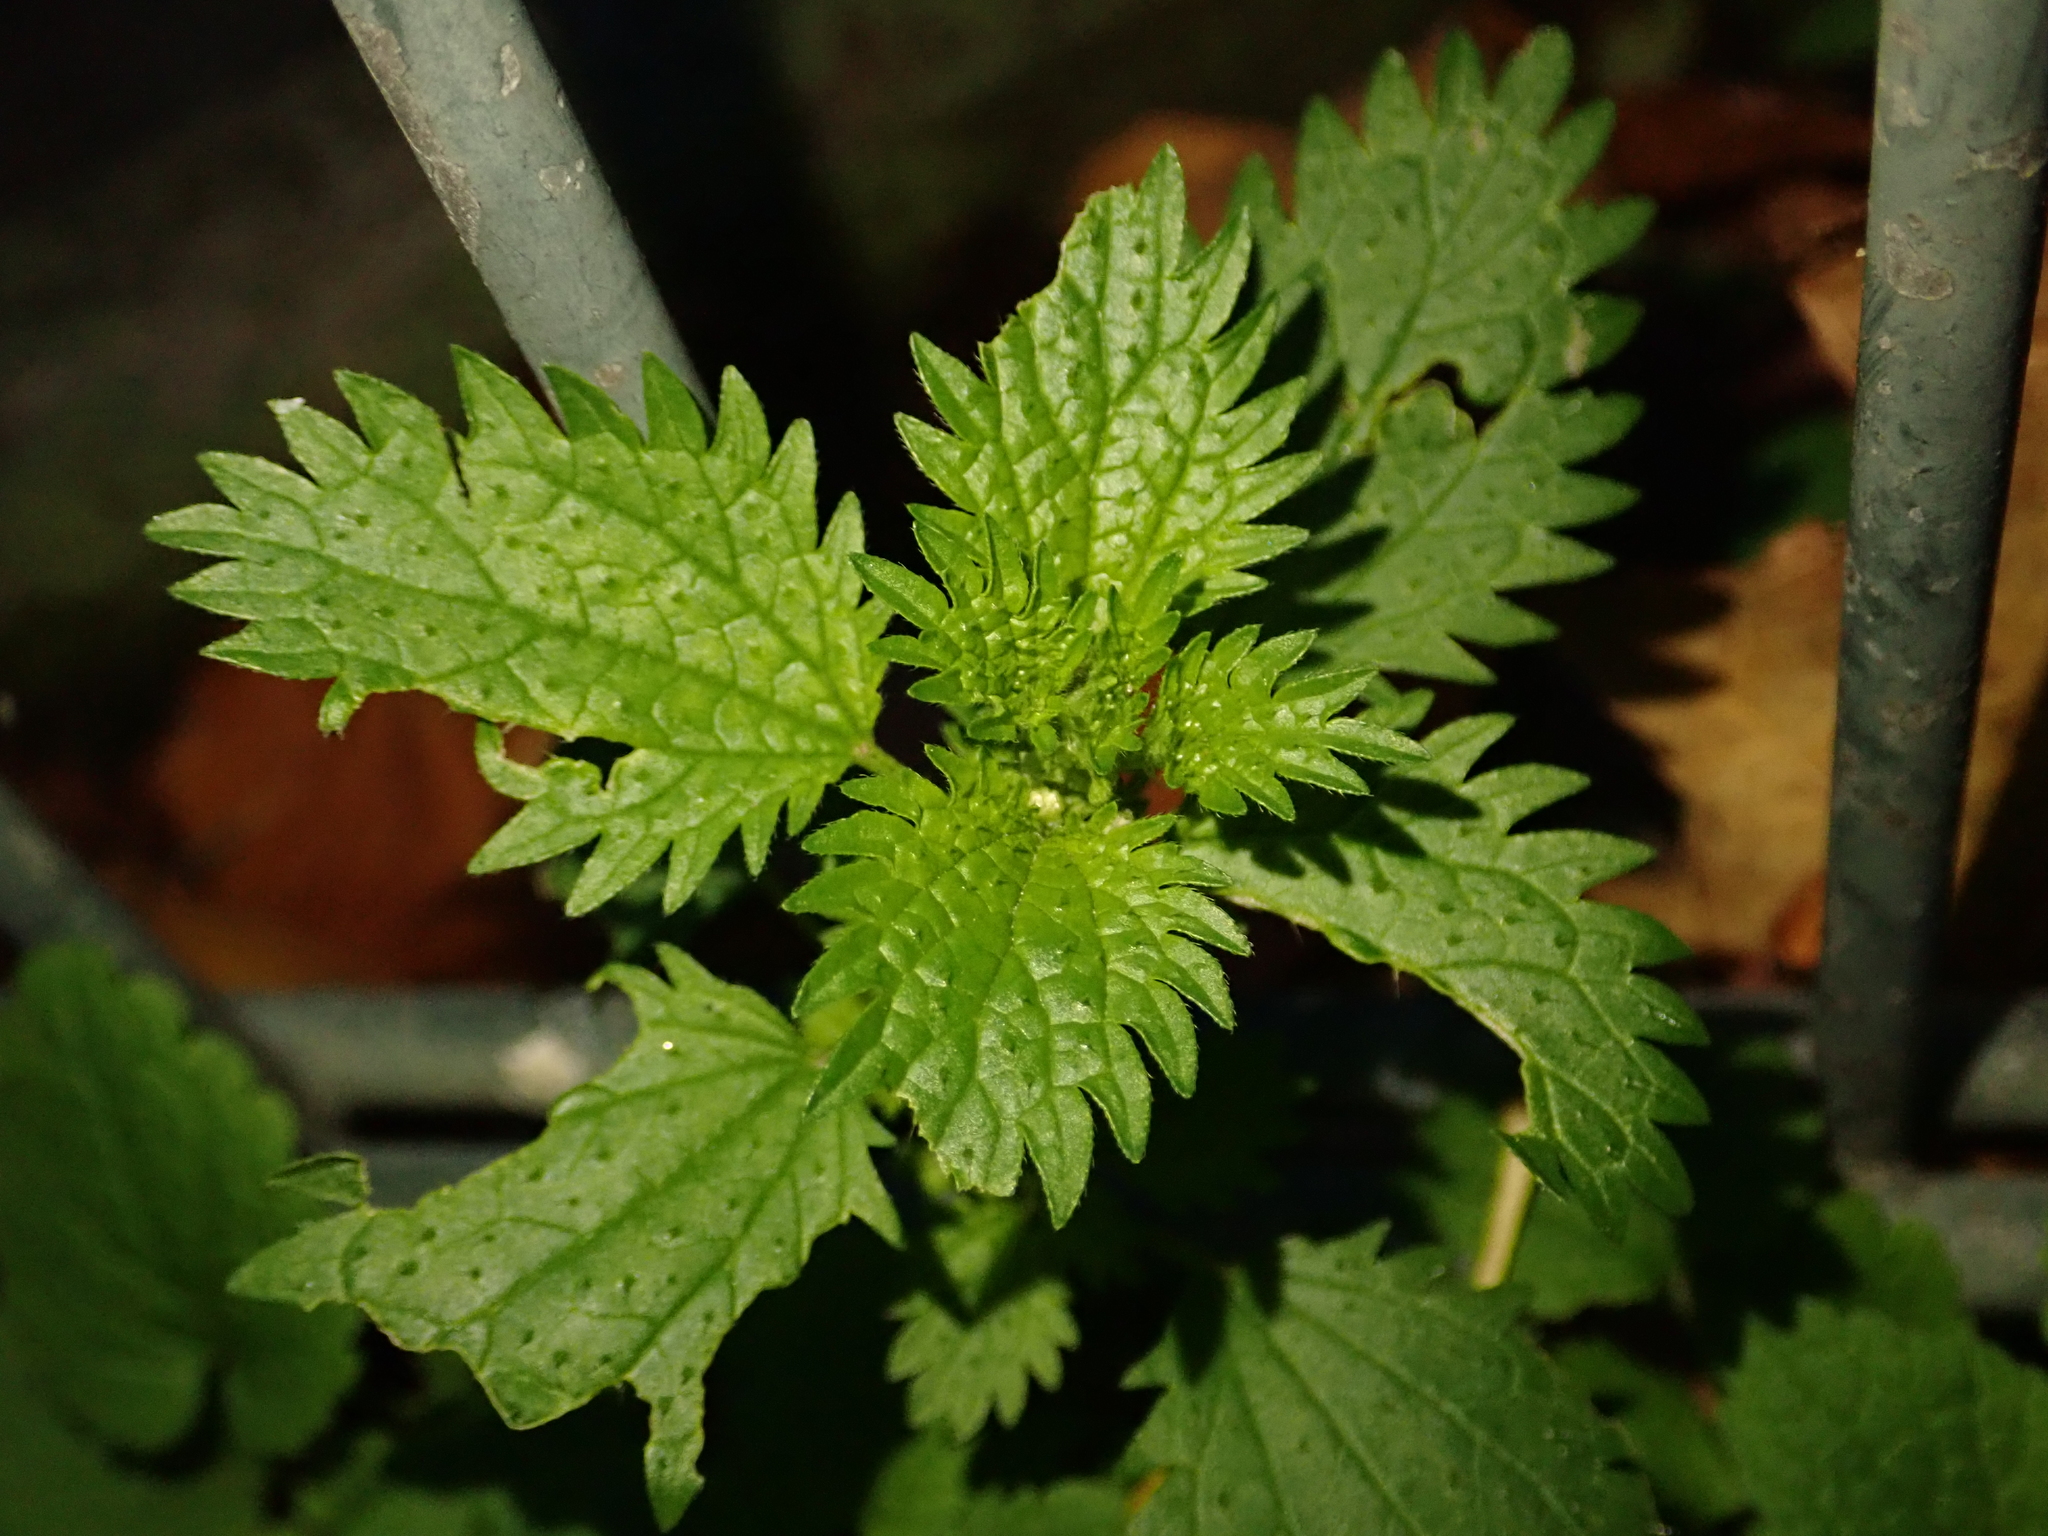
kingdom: Plantae
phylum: Tracheophyta
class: Magnoliopsida
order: Rosales
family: Urticaceae
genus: Urtica
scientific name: Urtica urens
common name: Dwarf nettle
